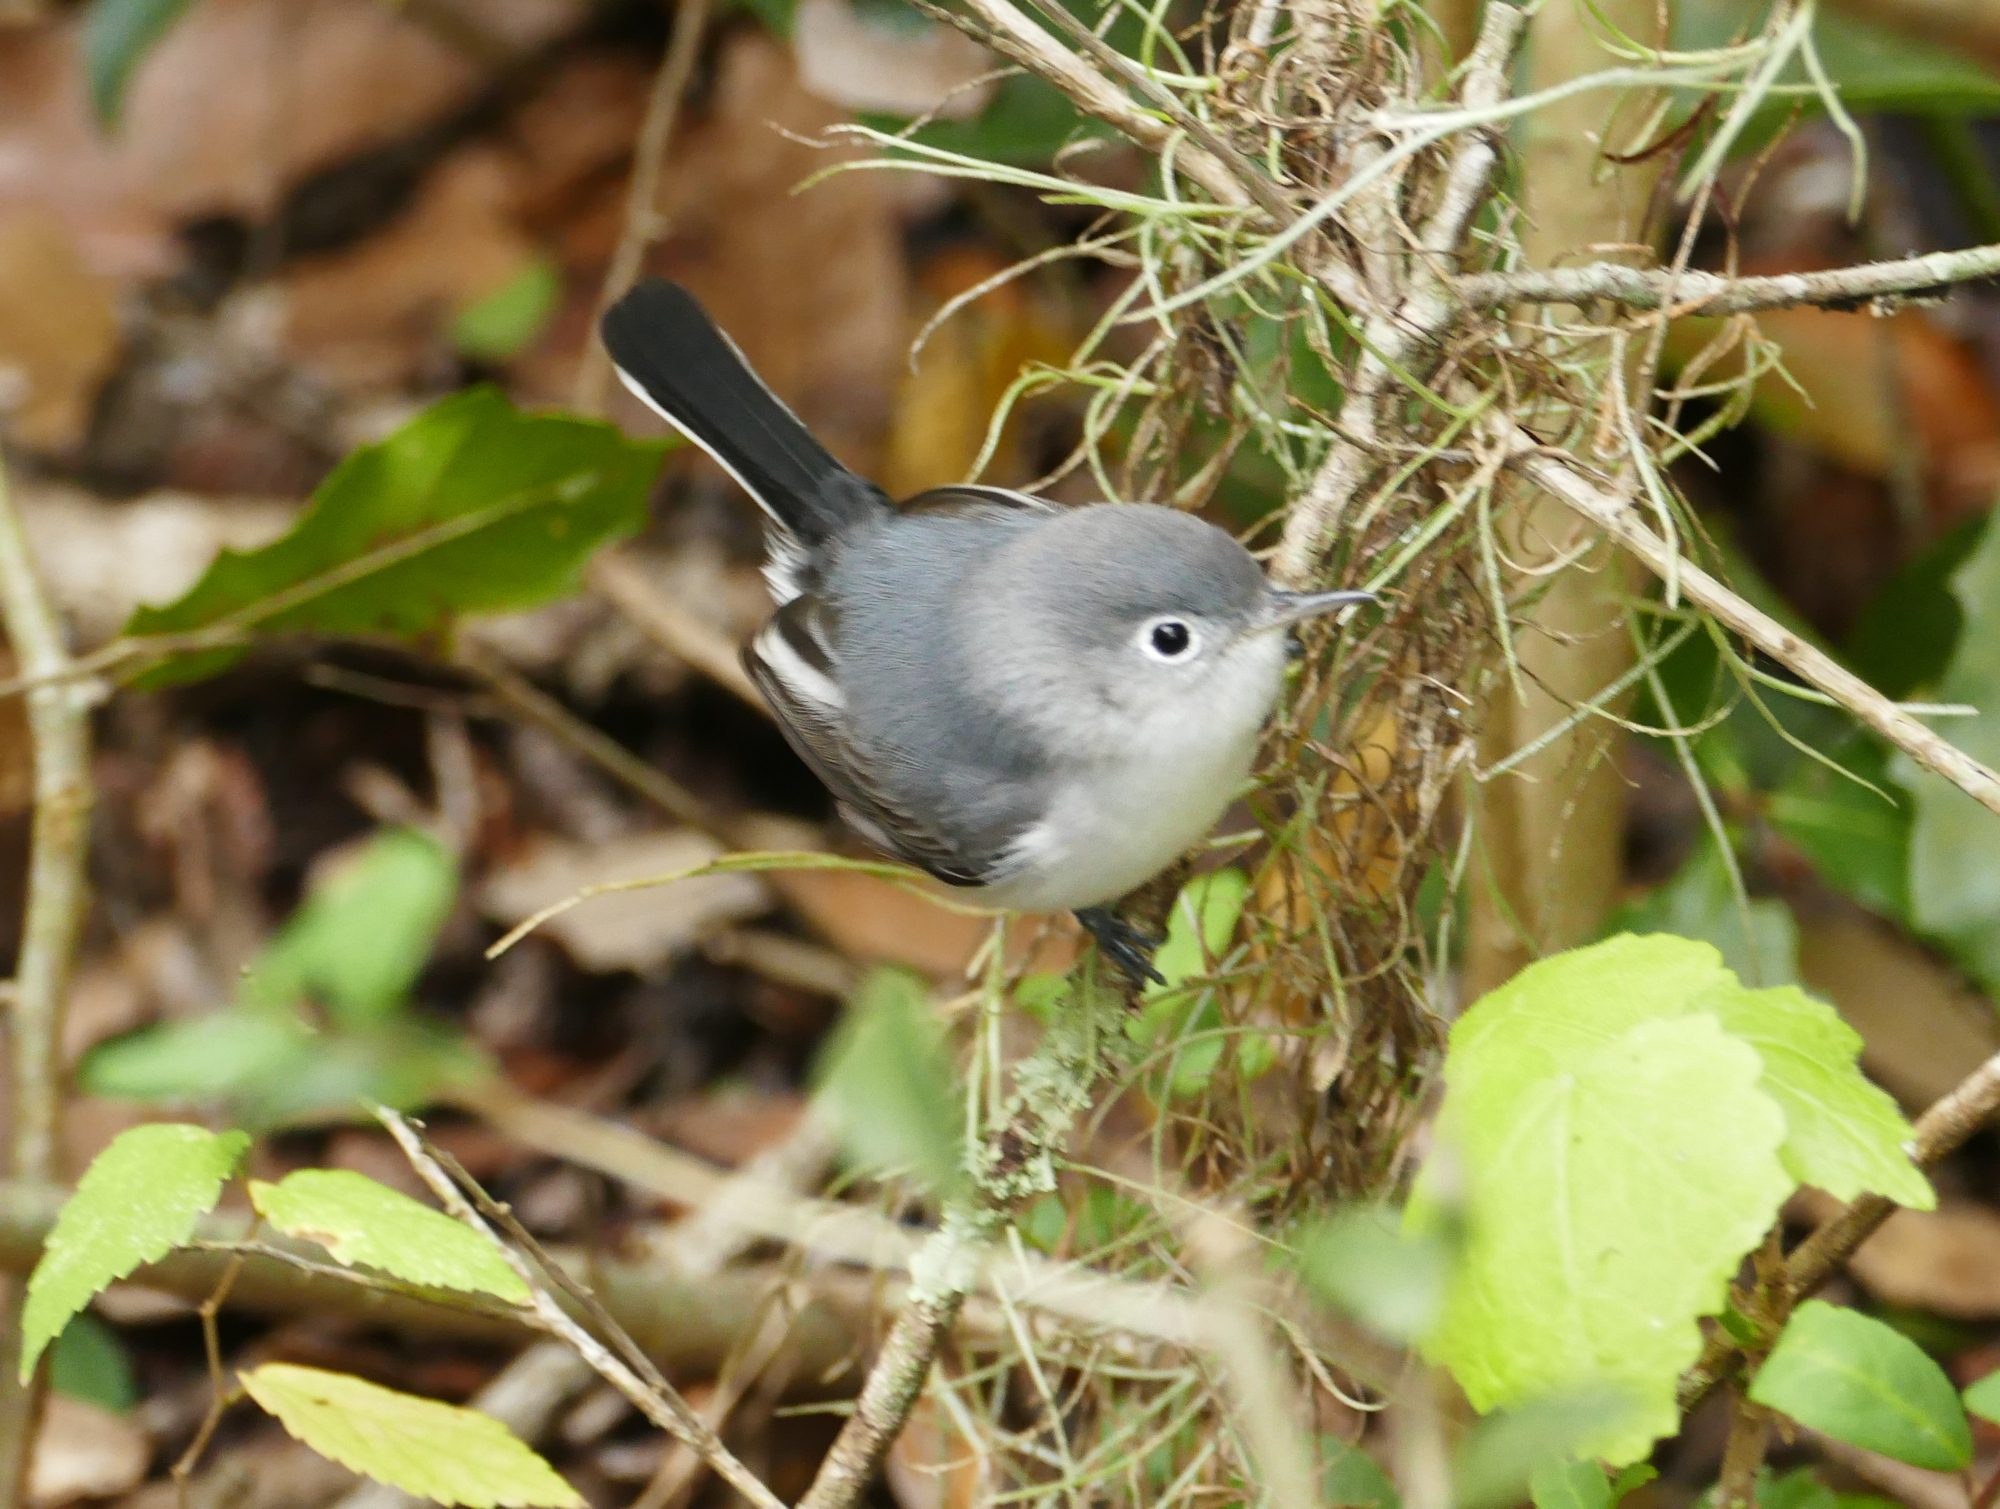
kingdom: Animalia
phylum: Chordata
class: Aves
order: Passeriformes
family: Polioptilidae
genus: Polioptila
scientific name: Polioptila caerulea
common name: Blue-gray gnatcatcher
